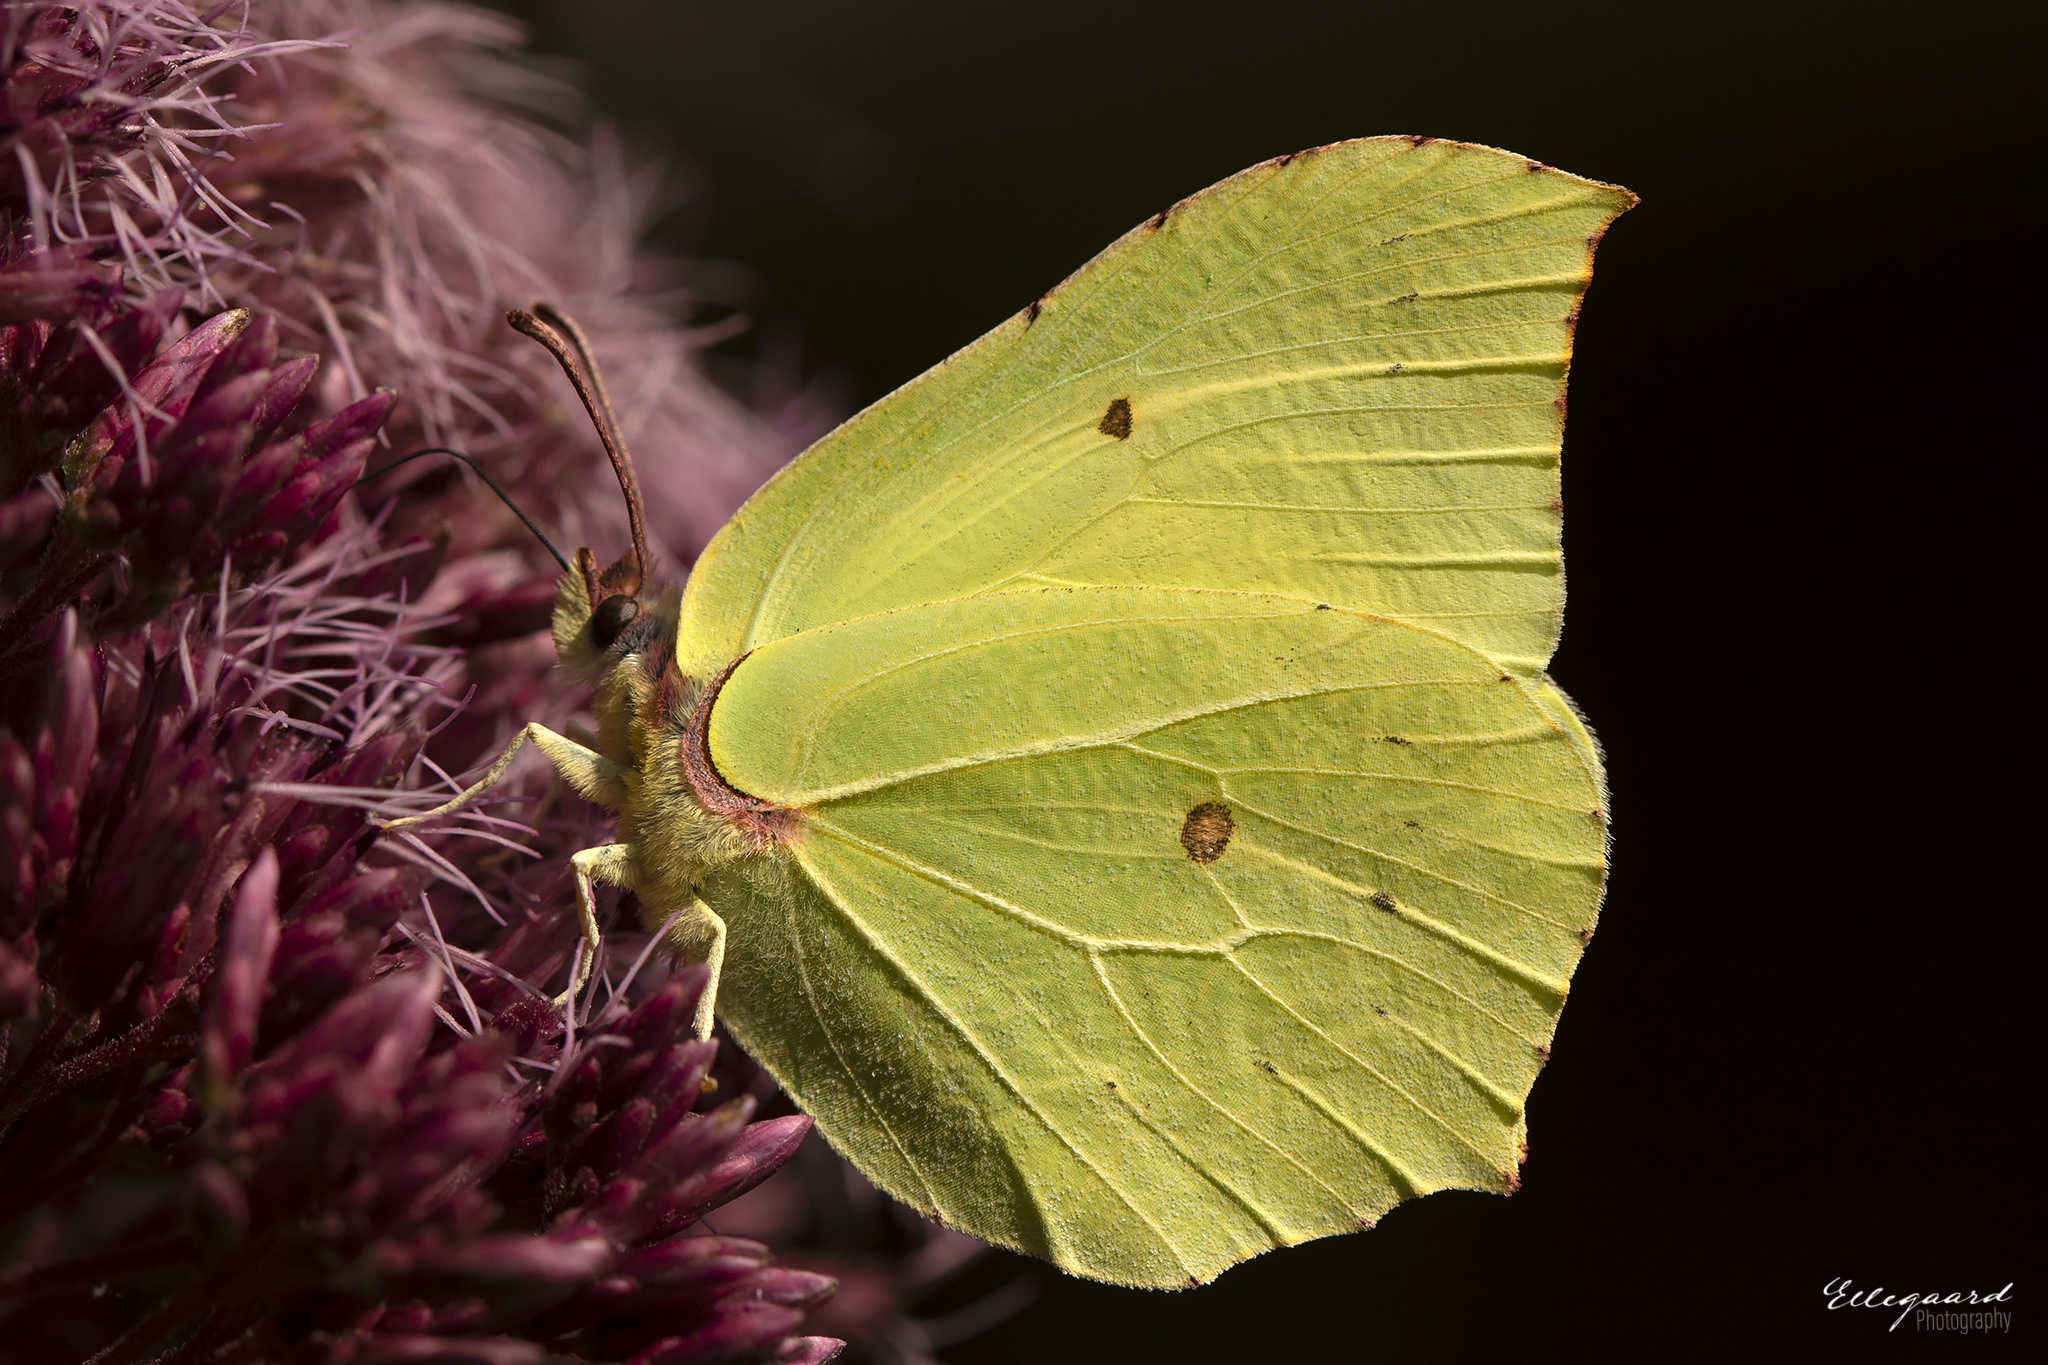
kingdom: Animalia
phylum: Arthropoda
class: Insecta
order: Lepidoptera
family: Pieridae
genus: Gonepteryx
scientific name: Gonepteryx rhamni
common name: Brimstone
